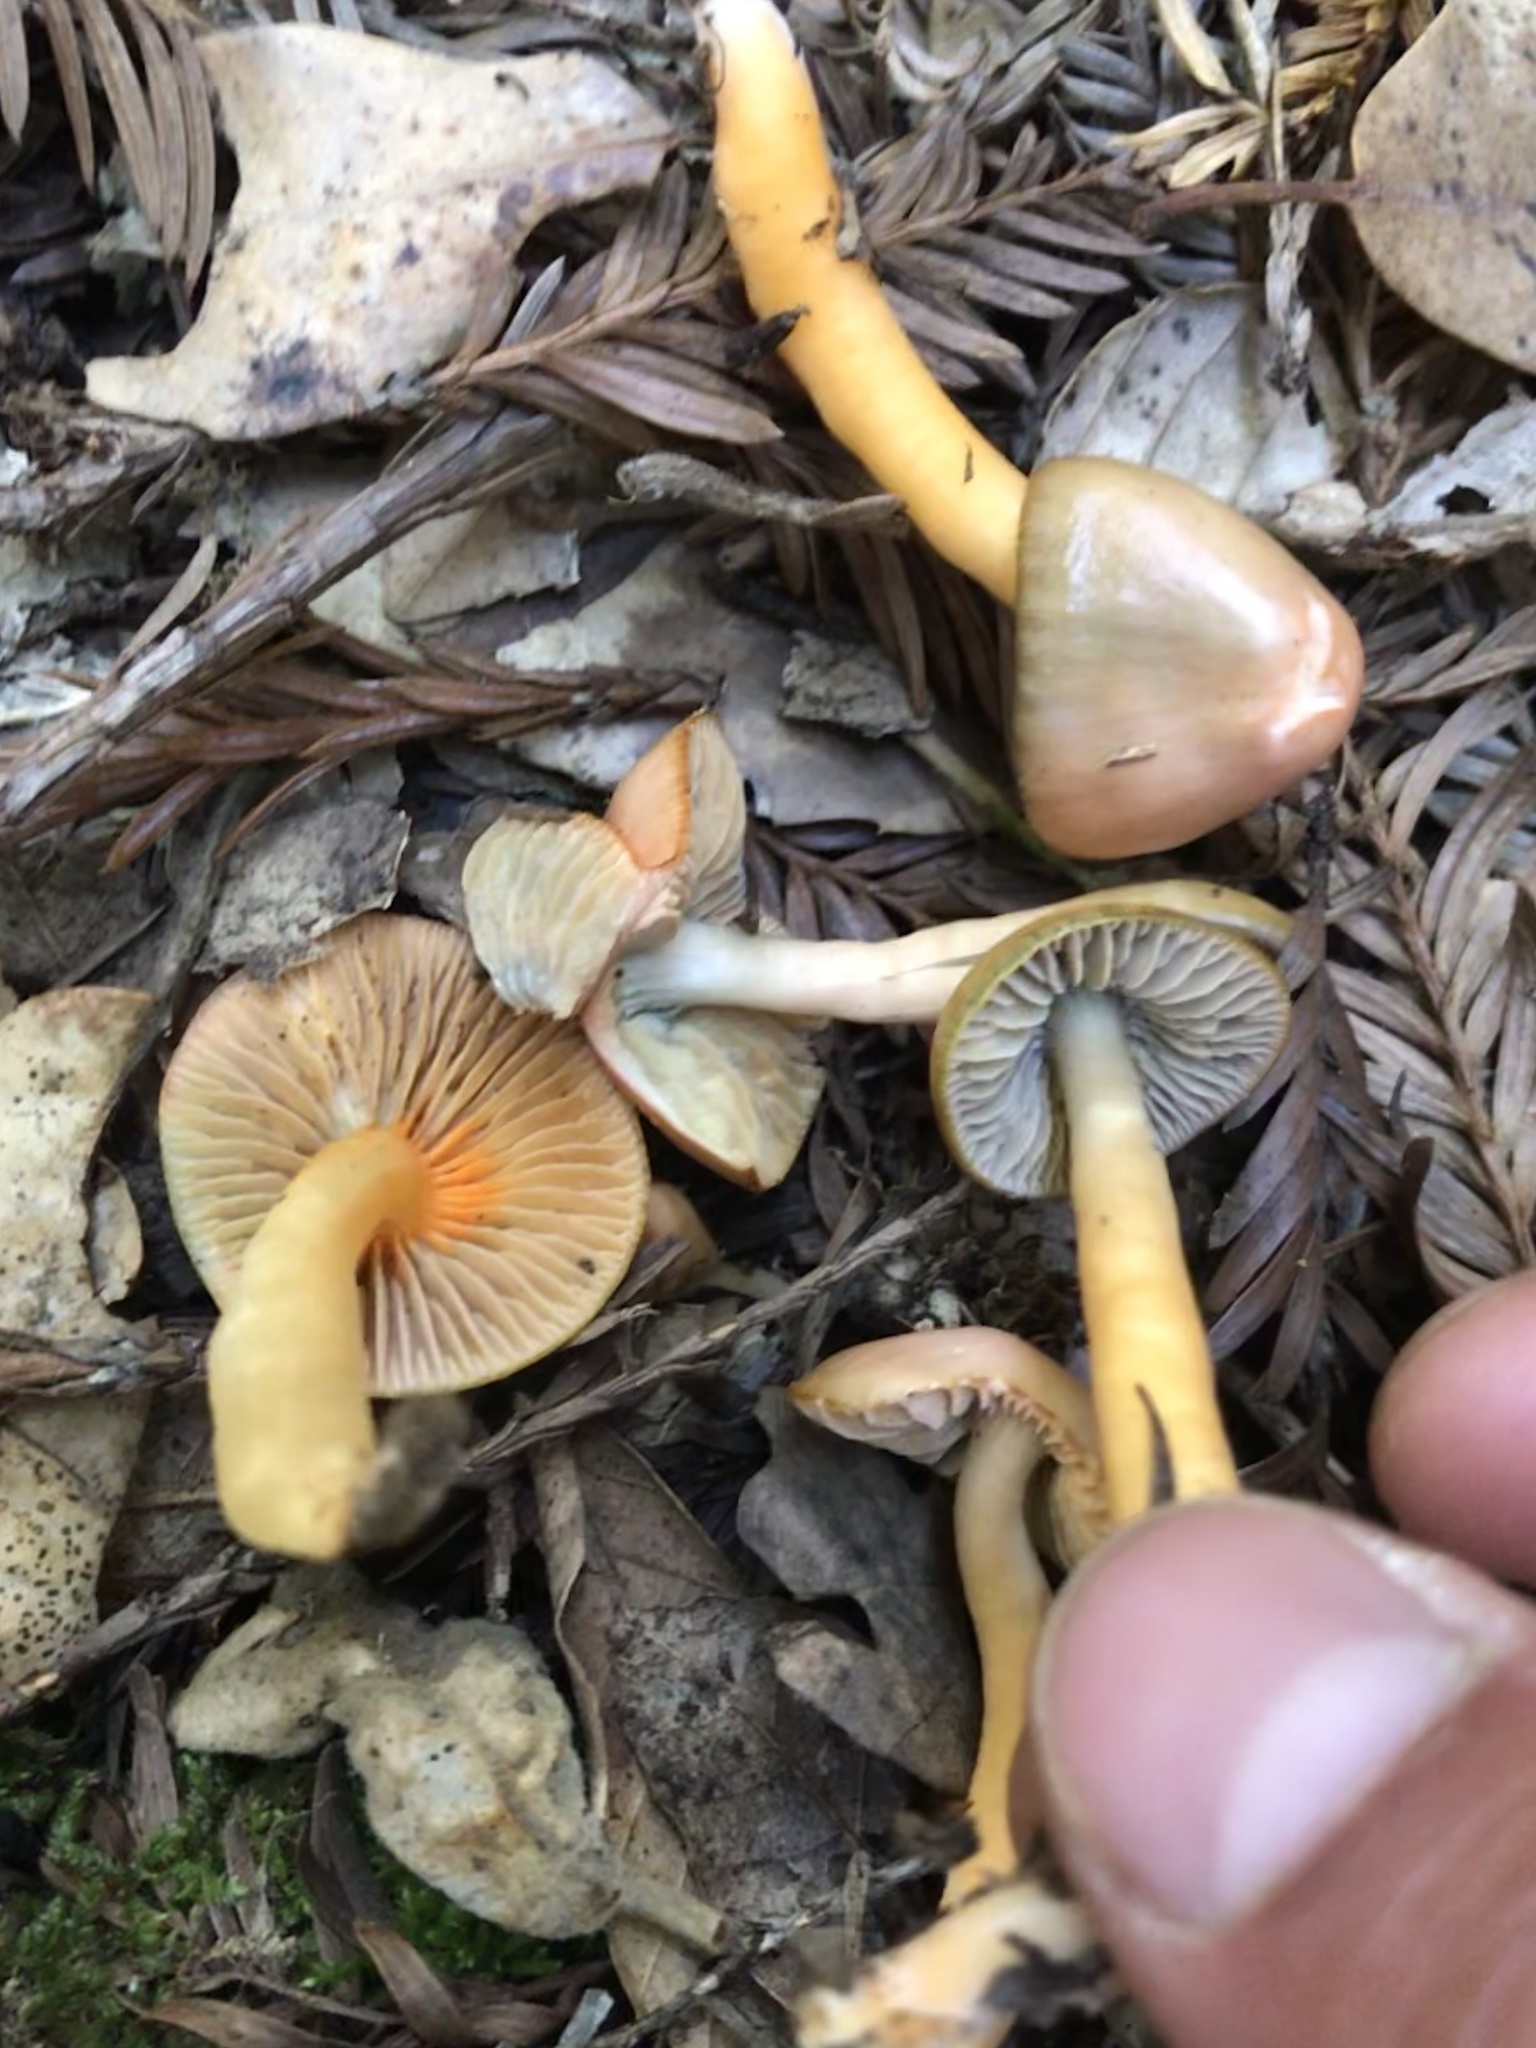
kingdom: Fungi
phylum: Basidiomycota
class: Agaricomycetes
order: Agaricales
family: Hygrophoraceae
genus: Gliophorus
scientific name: Gliophorus psittacinus
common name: Parrot wax-cap
